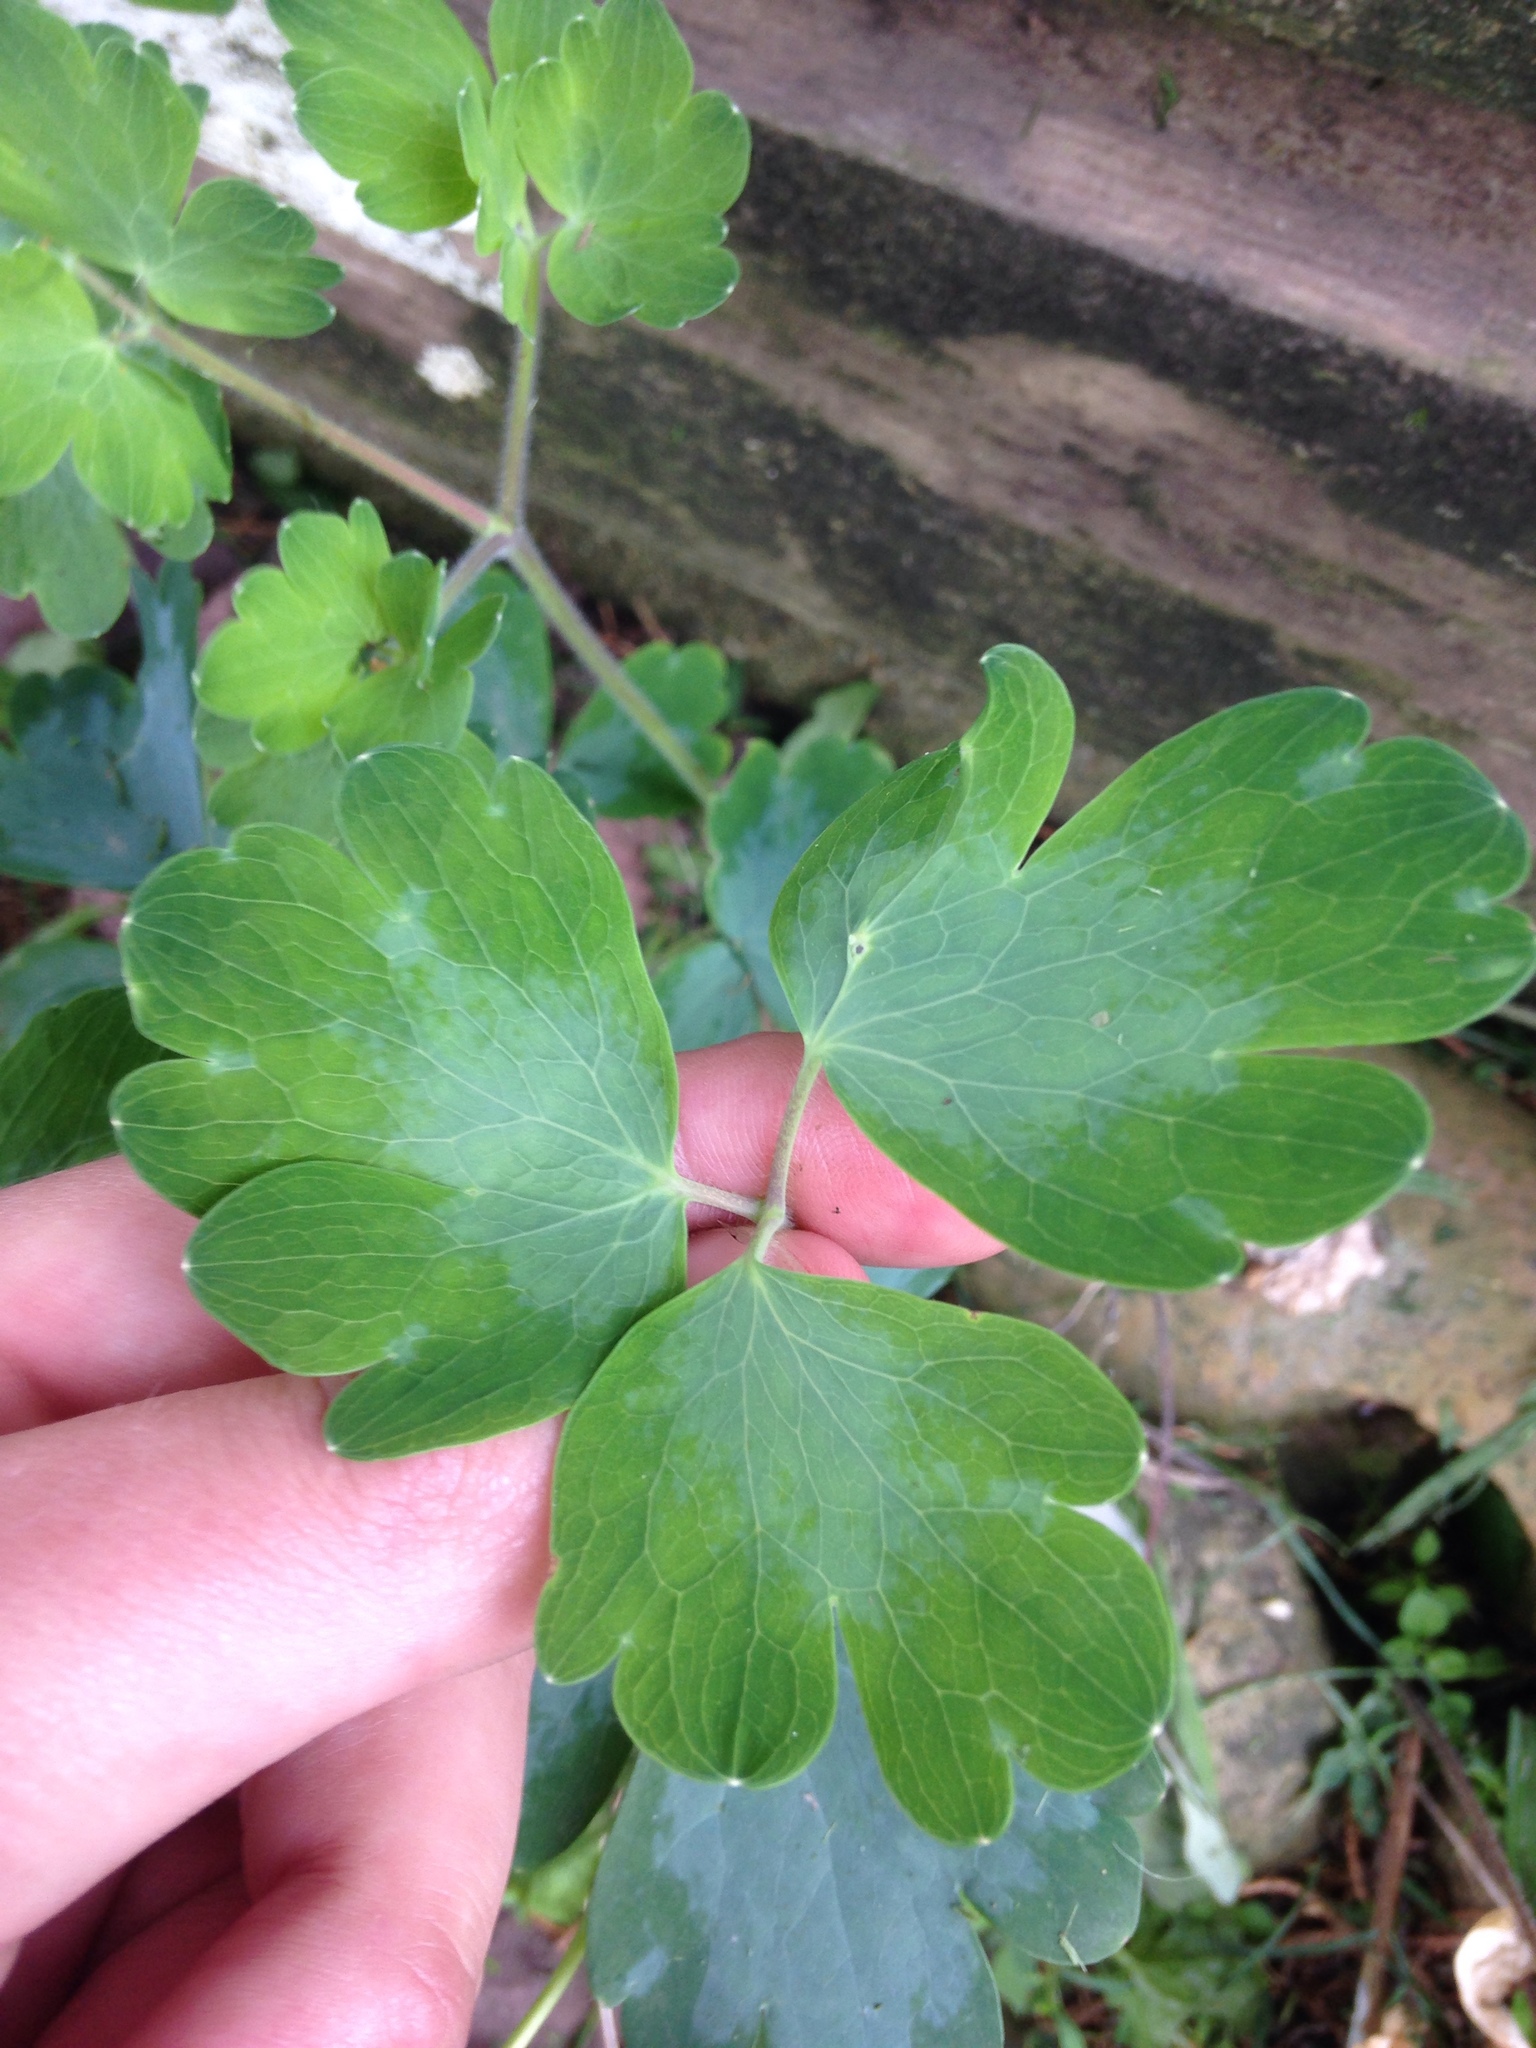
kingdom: Plantae
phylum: Tracheophyta
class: Magnoliopsida
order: Ranunculales
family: Ranunculaceae
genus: Aquilegia
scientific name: Aquilegia canadensis
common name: American columbine
